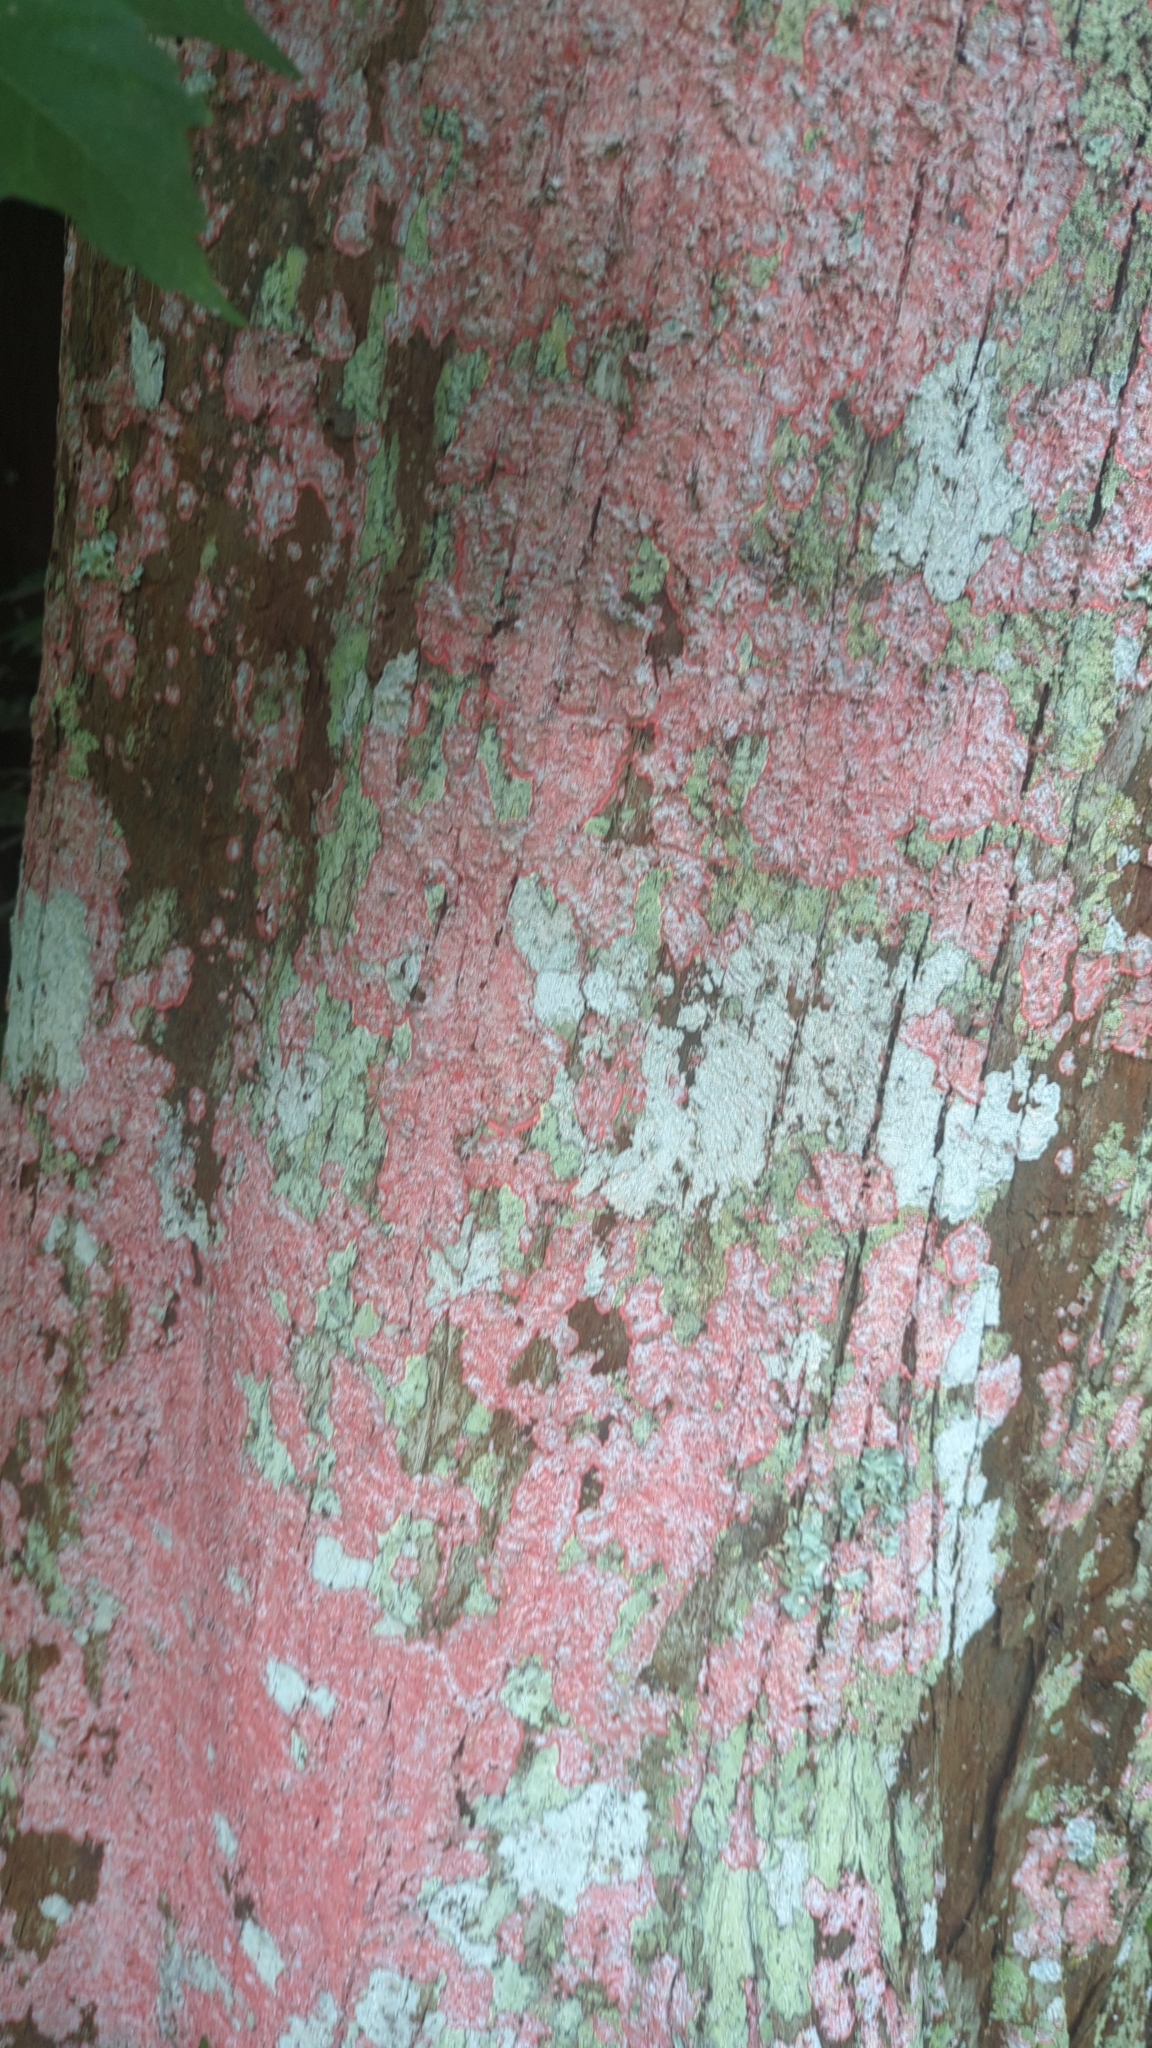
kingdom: Fungi
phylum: Ascomycota
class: Arthoniomycetes
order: Arthoniales
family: Arthoniaceae
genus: Herpothallon
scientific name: Herpothallon rubrocinctum
